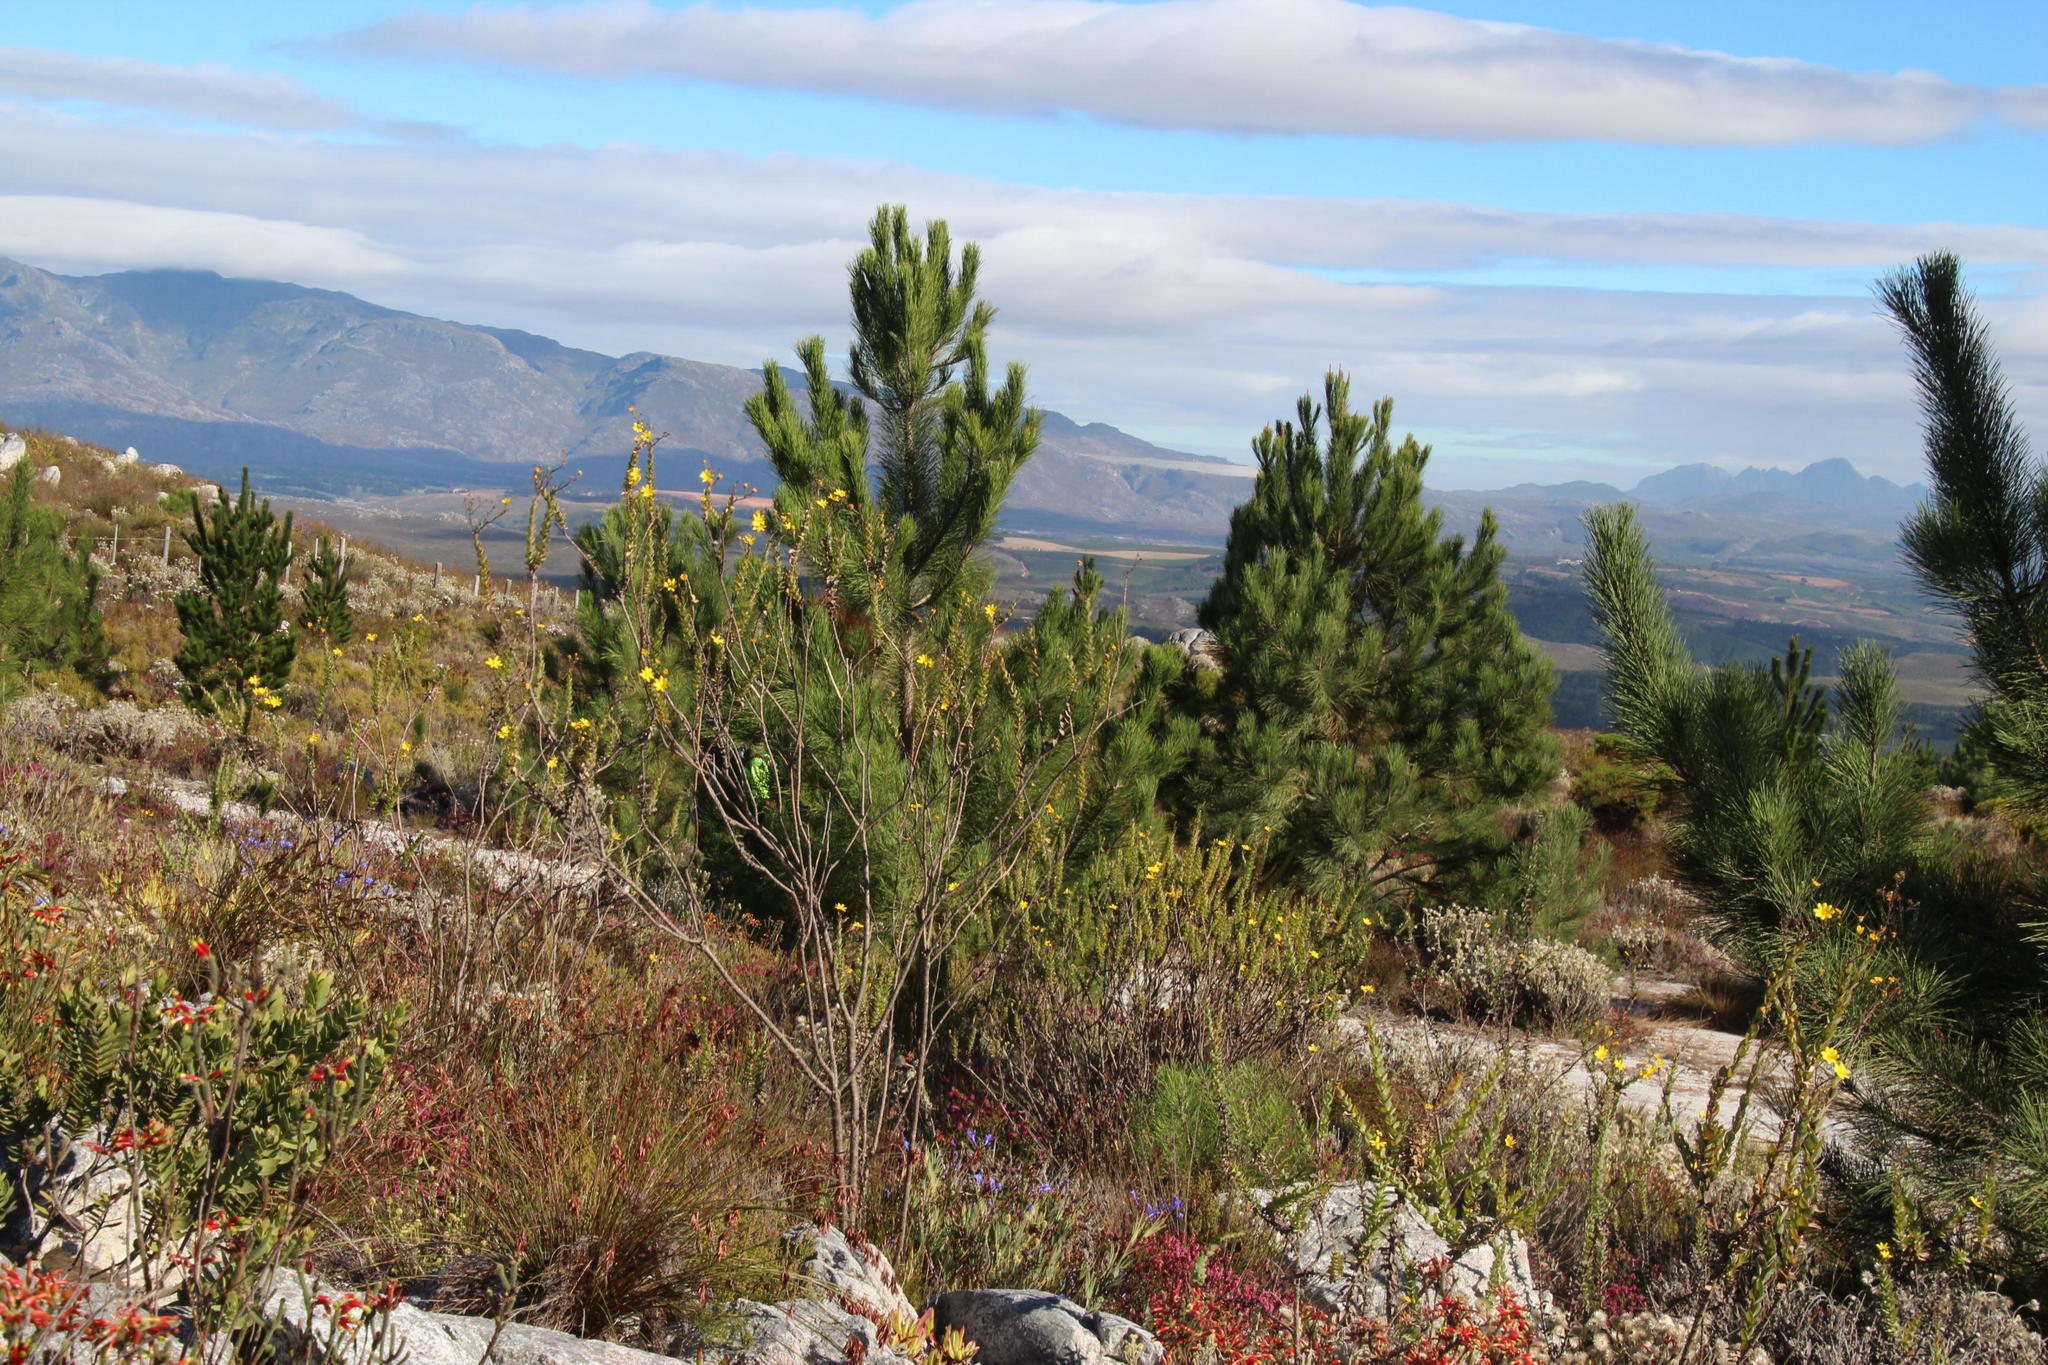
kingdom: Plantae
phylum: Tracheophyta
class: Pinopsida
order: Pinales
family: Pinaceae
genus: Pinus
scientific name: Pinus pinaster
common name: Maritime pine
